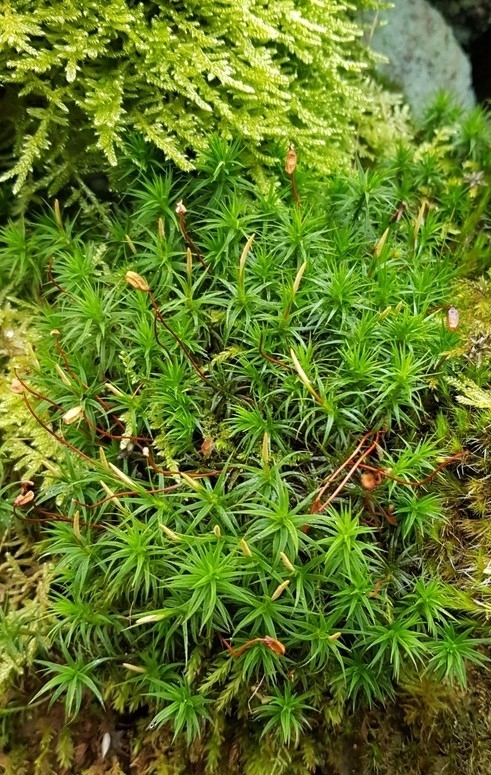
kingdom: Plantae
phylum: Bryophyta
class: Polytrichopsida
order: Polytrichales
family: Polytrichaceae
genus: Polytrichum
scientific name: Polytrichum formosum
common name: Bank haircap moss
